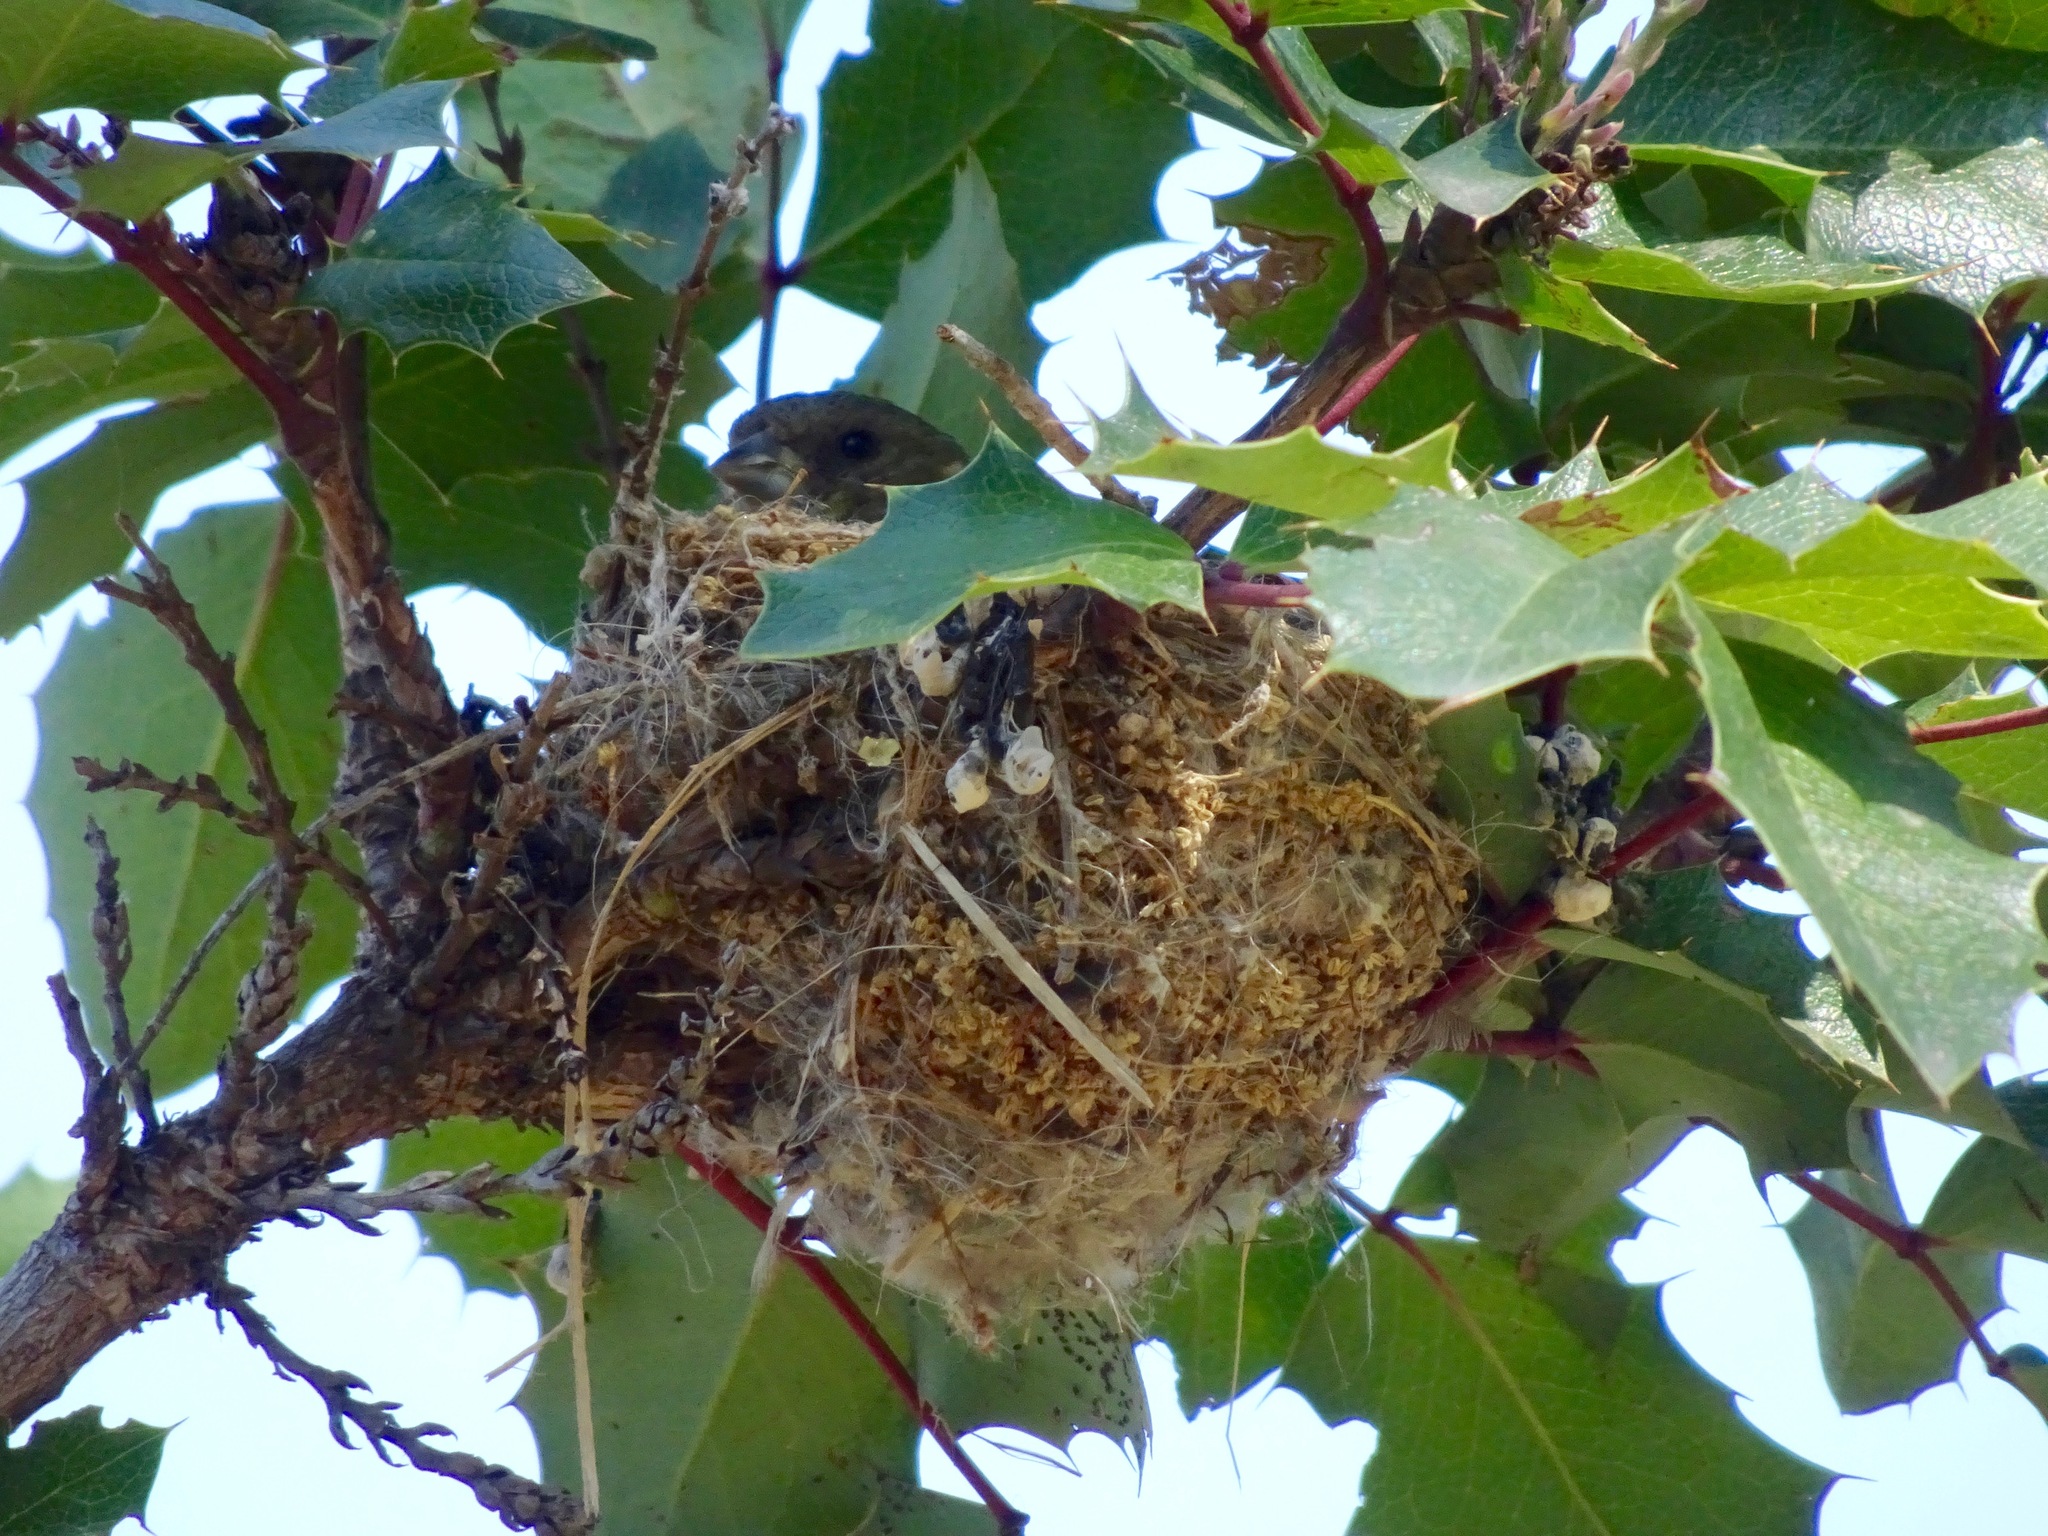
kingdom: Animalia
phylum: Chordata
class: Aves
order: Passeriformes
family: Fringillidae
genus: Spinus
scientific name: Spinus psaltria
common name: Lesser goldfinch
